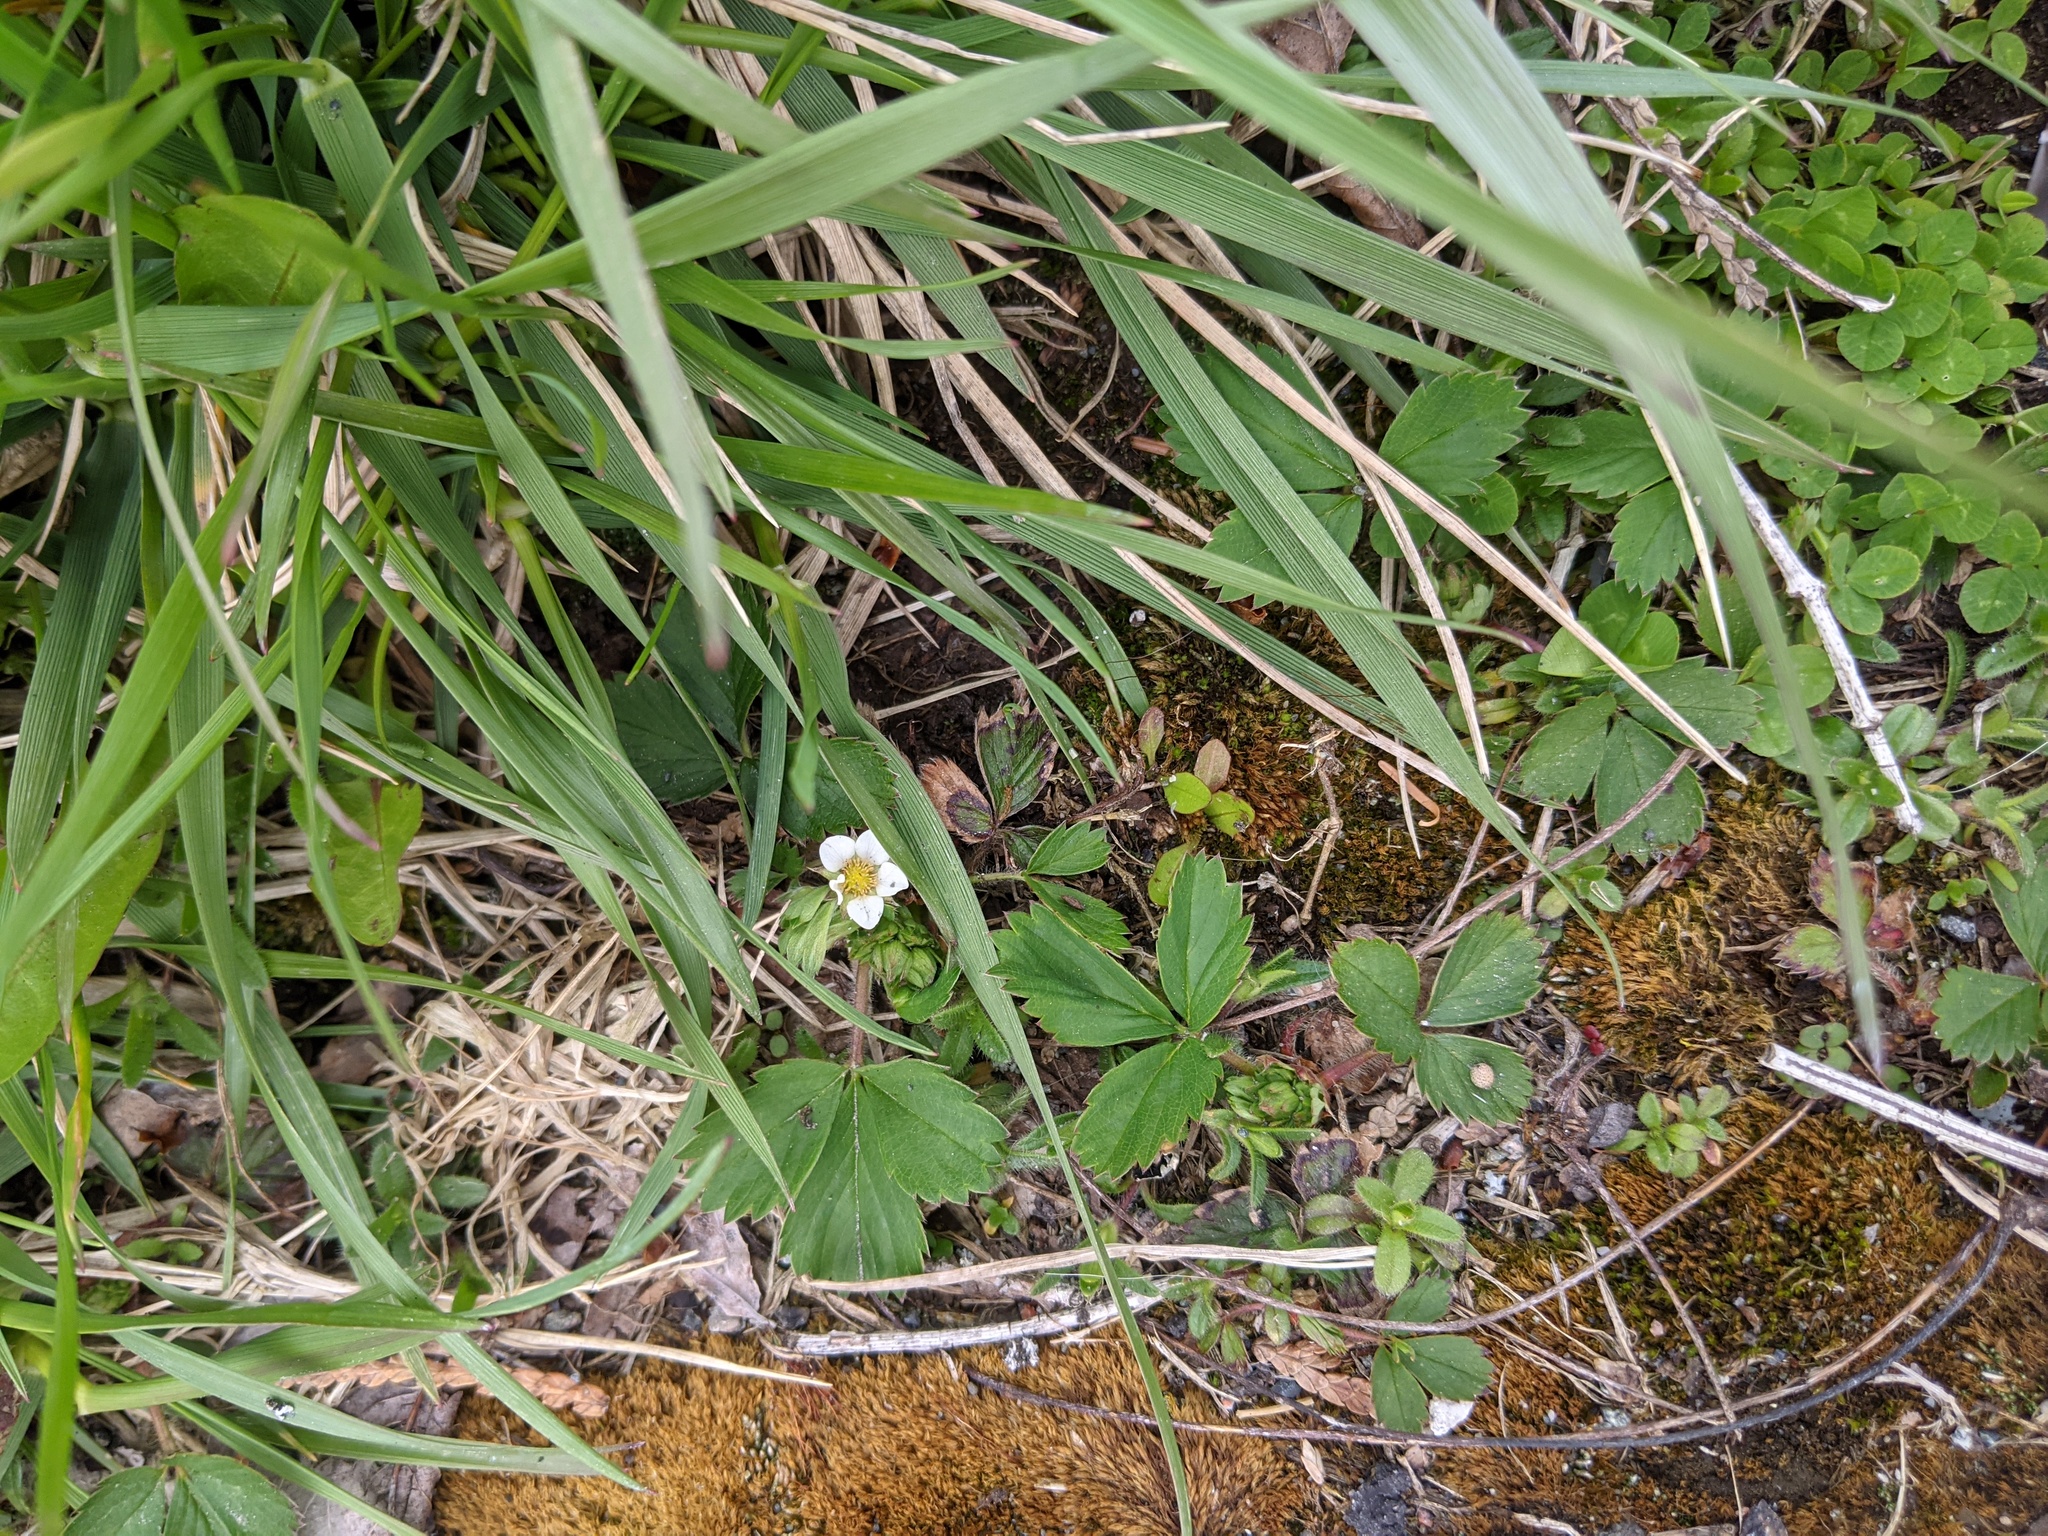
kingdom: Plantae
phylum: Tracheophyta
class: Magnoliopsida
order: Rosales
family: Rosaceae
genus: Fragaria
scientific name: Fragaria virginiana
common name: Thickleaved wild strawberry
